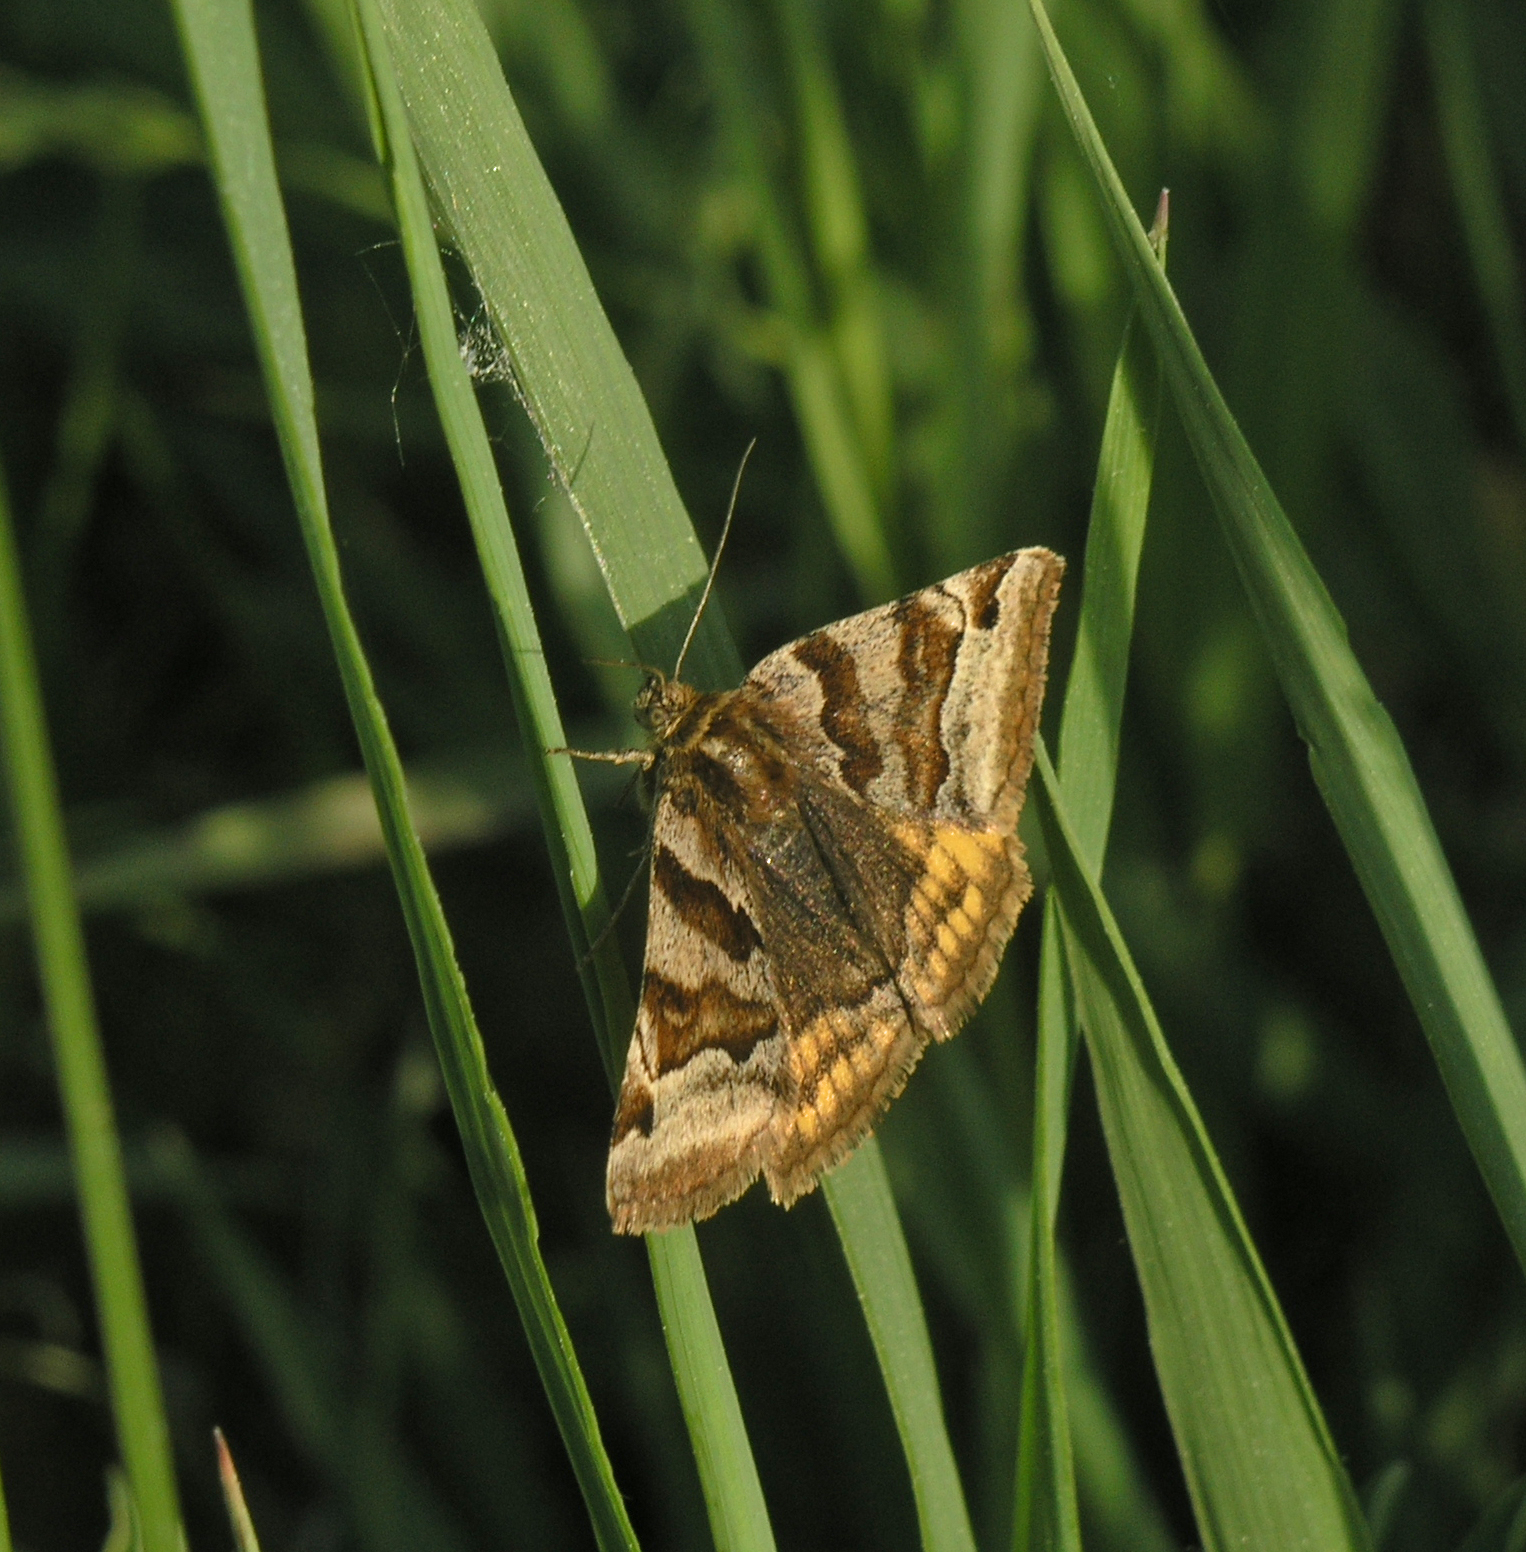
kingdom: Animalia
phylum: Arthropoda
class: Insecta
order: Lepidoptera
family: Erebidae
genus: Euclidia
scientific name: Euclidia glyphica
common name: Burnet companion
